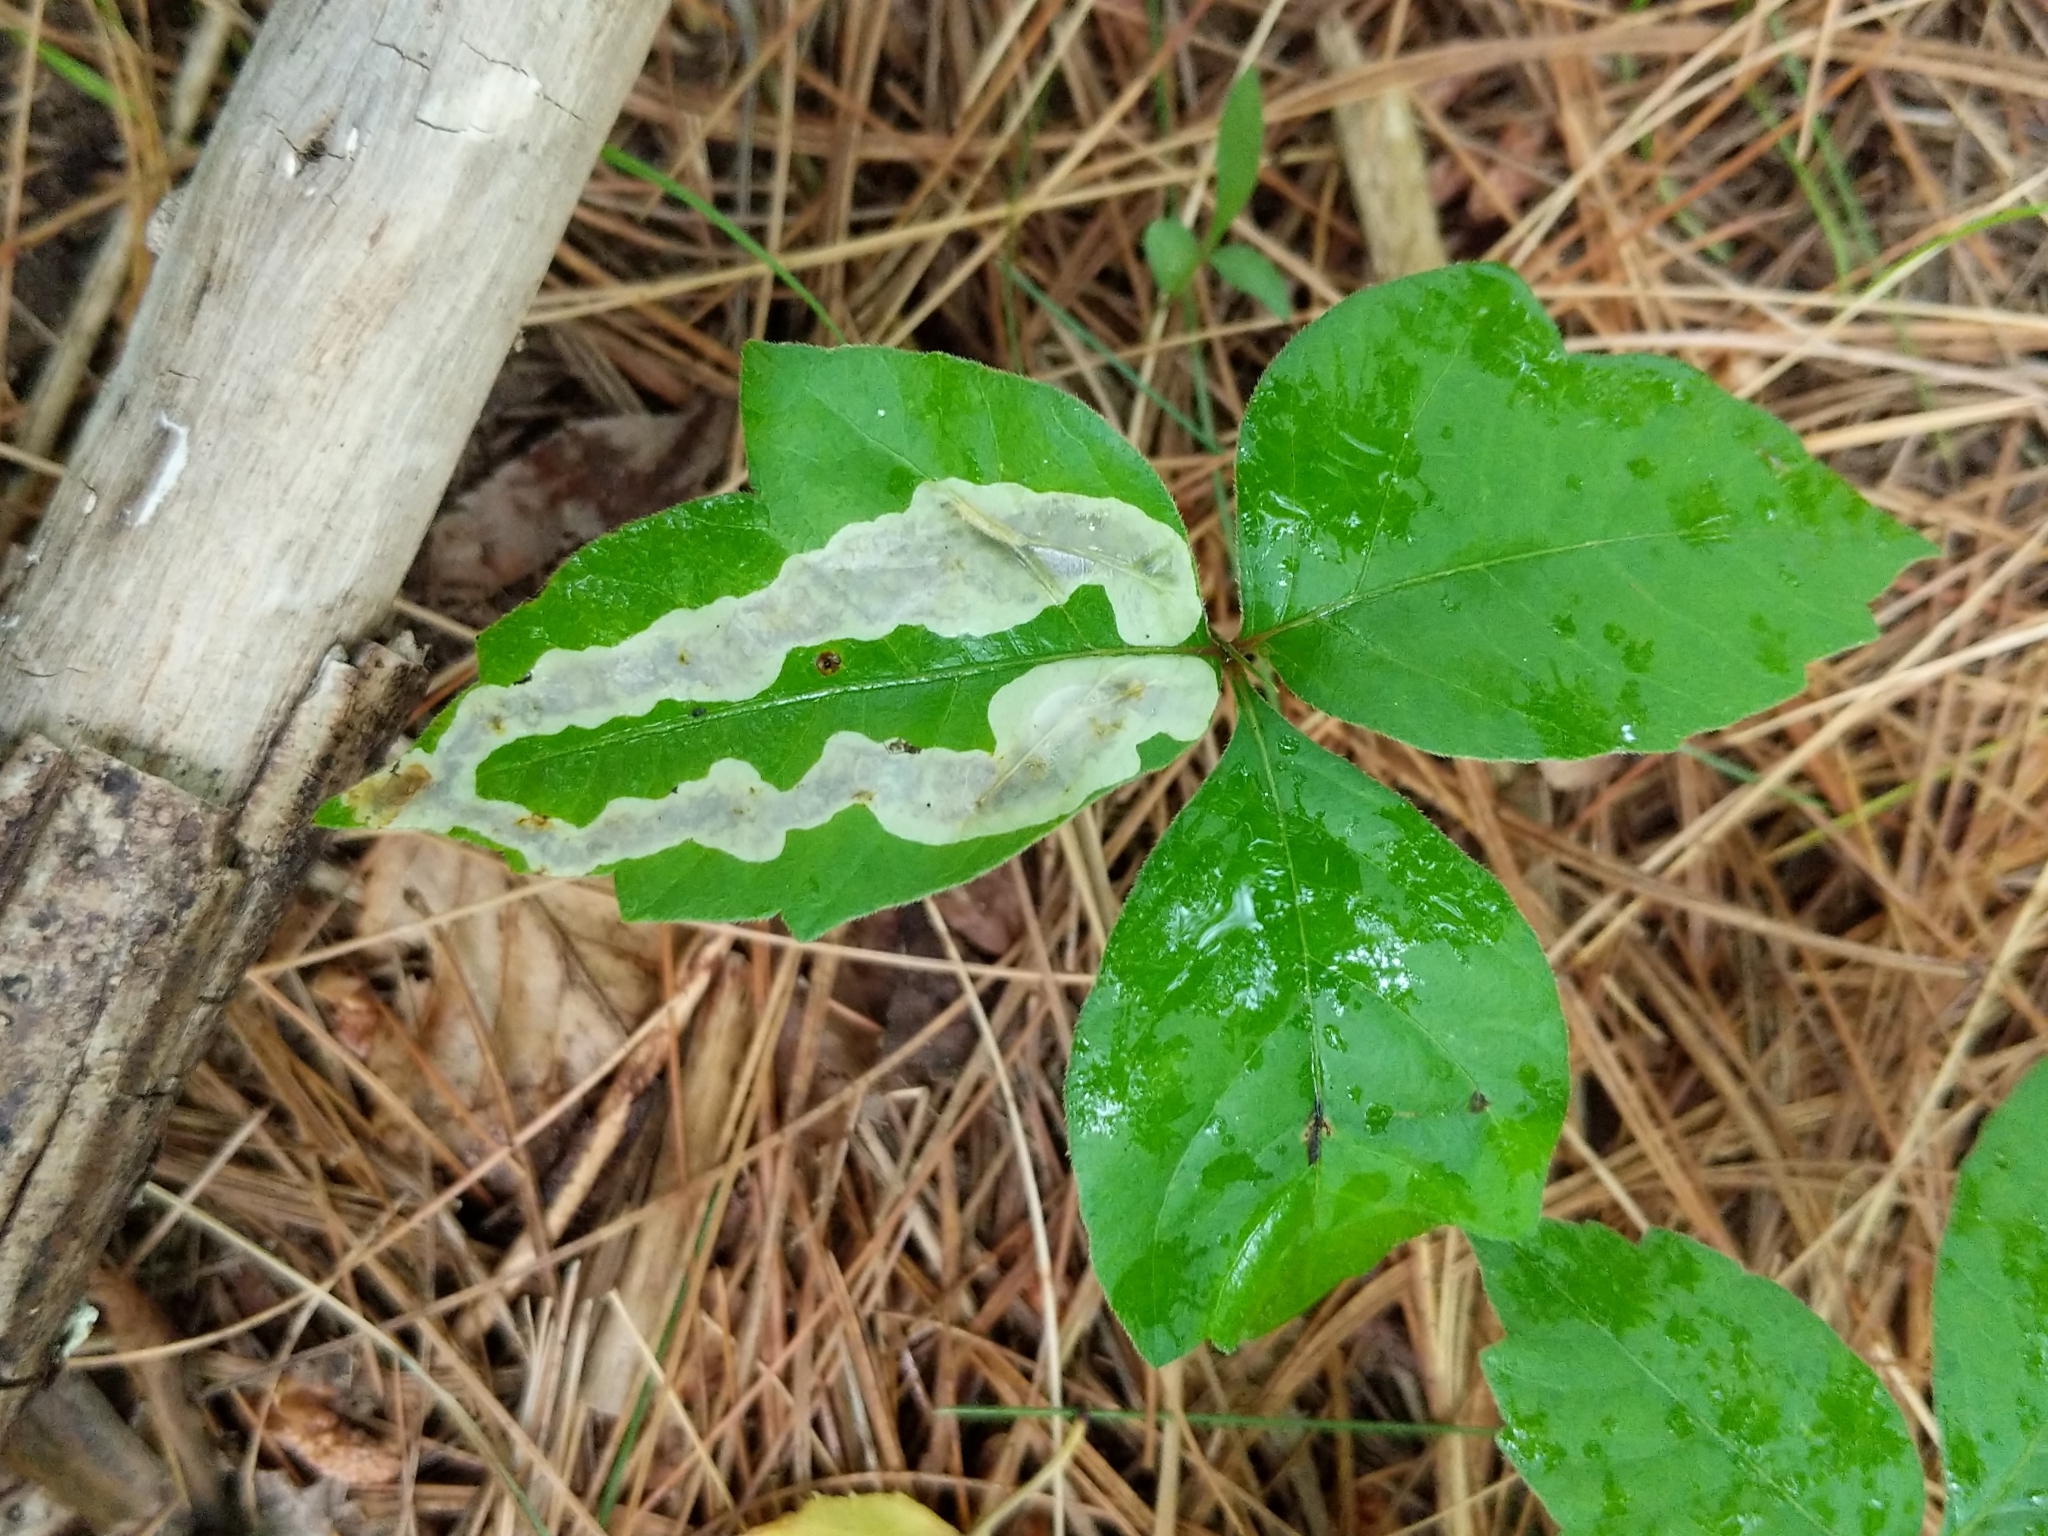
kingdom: Animalia
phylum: Arthropoda
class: Insecta
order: Lepidoptera
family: Gracillariidae
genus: Cameraria
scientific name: Cameraria guttifinitella
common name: Poison ivy leaf-miner moth
